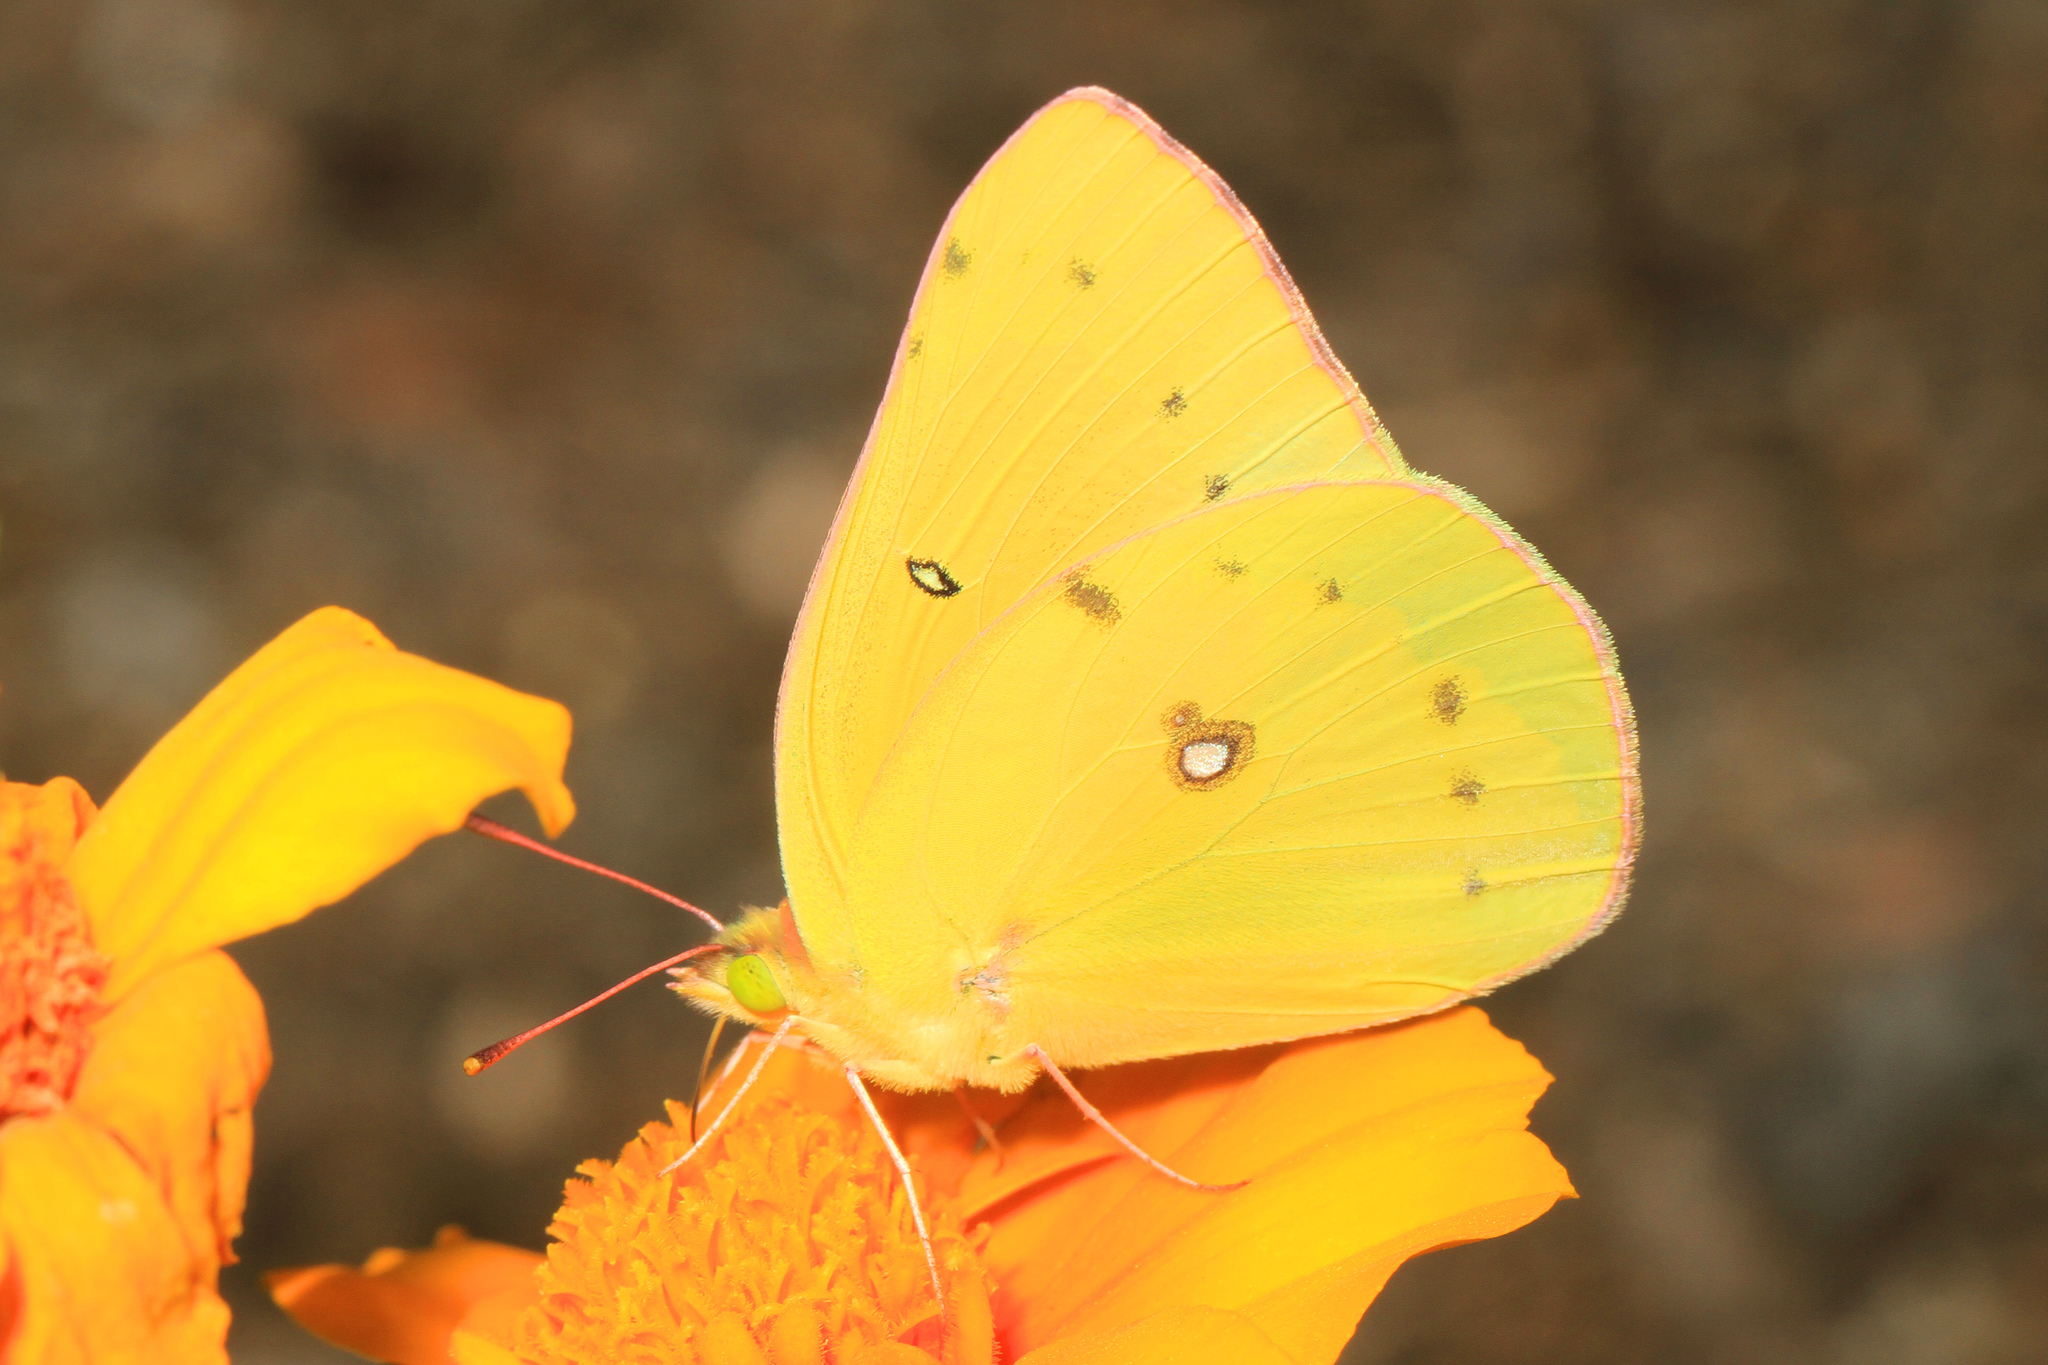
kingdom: Animalia
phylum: Arthropoda
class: Insecta
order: Lepidoptera
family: Pieridae
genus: Colias
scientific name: Colias eurytheme
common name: Alfalfa butterfly
